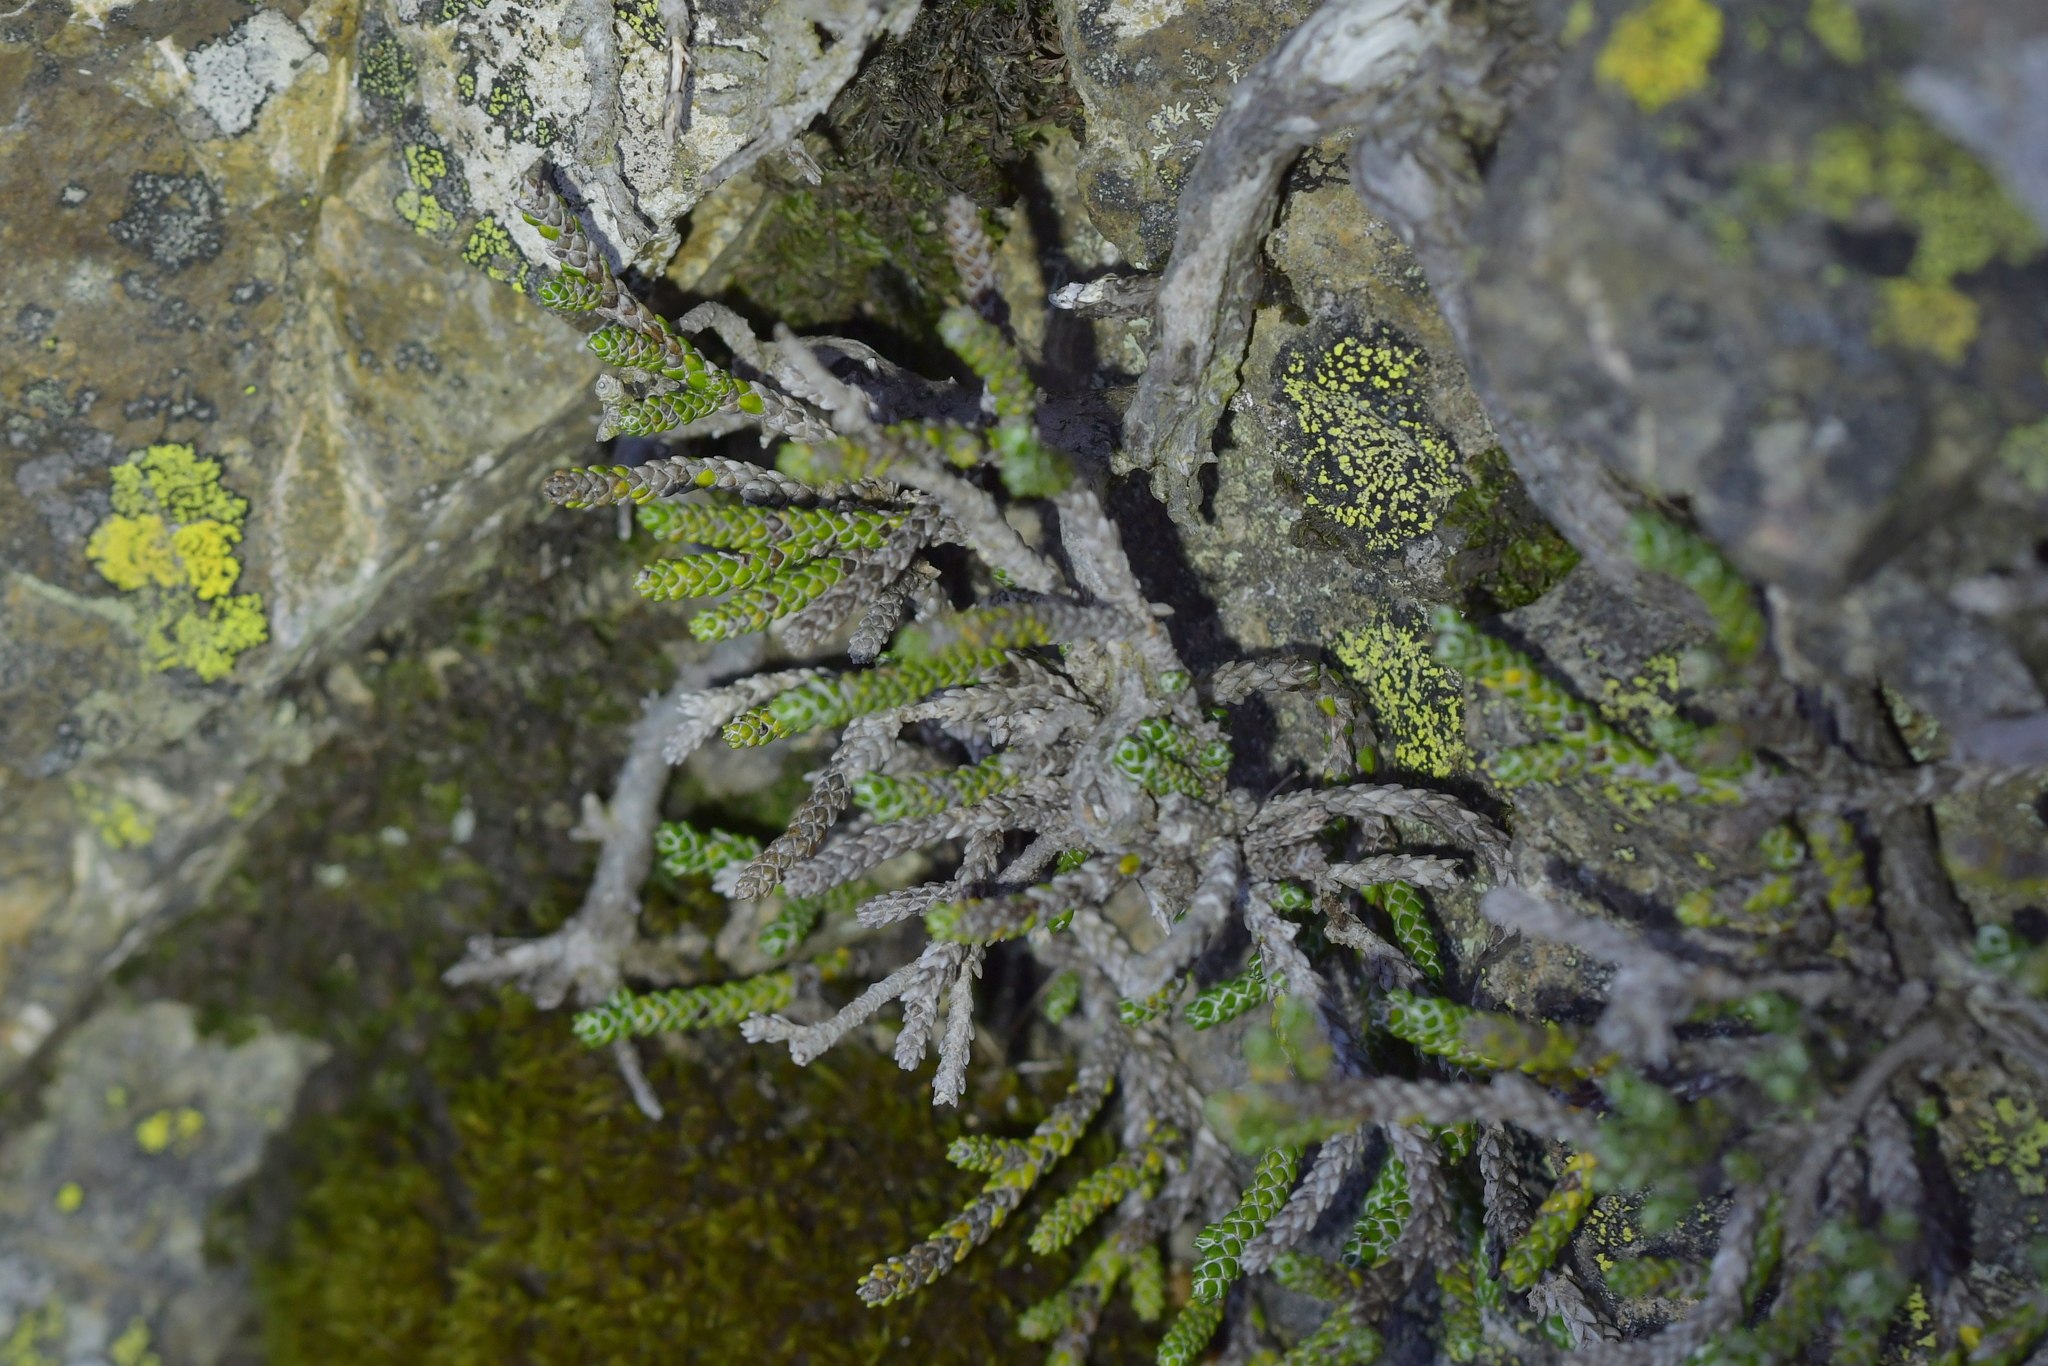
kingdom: Plantae
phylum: Tracheophyta
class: Magnoliopsida
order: Asterales
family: Asteraceae
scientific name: Asteraceae
